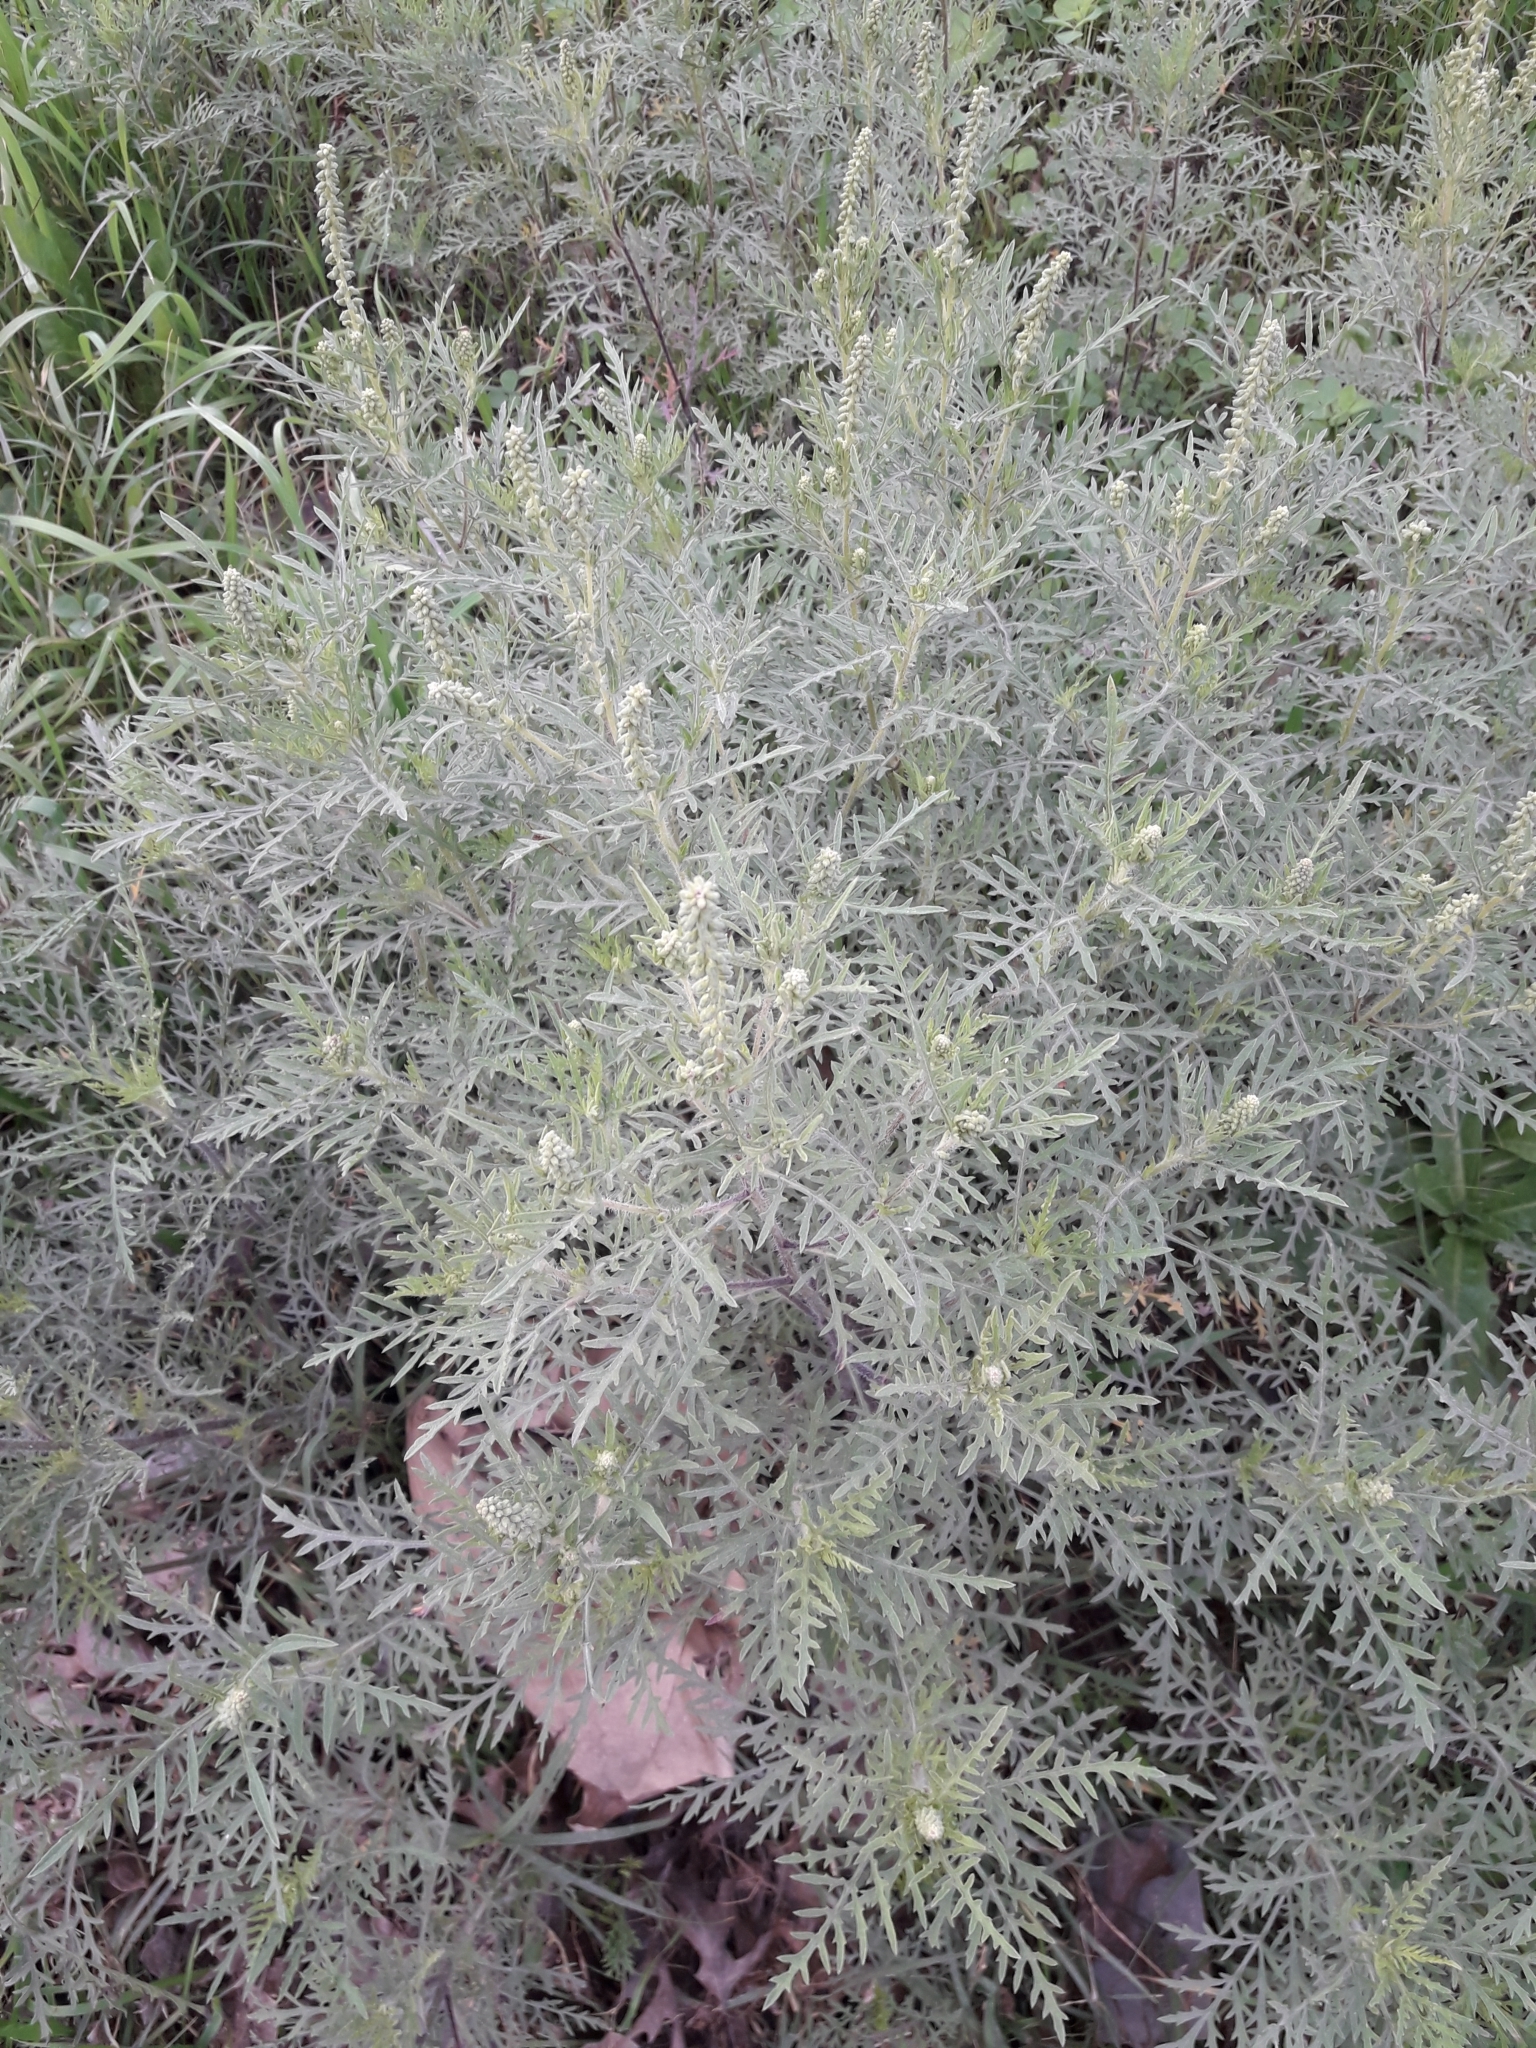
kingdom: Plantae
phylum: Tracheophyta
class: Magnoliopsida
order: Asterales
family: Asteraceae
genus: Ambrosia
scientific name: Ambrosia tenuifolia
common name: Lacy ambrosia
